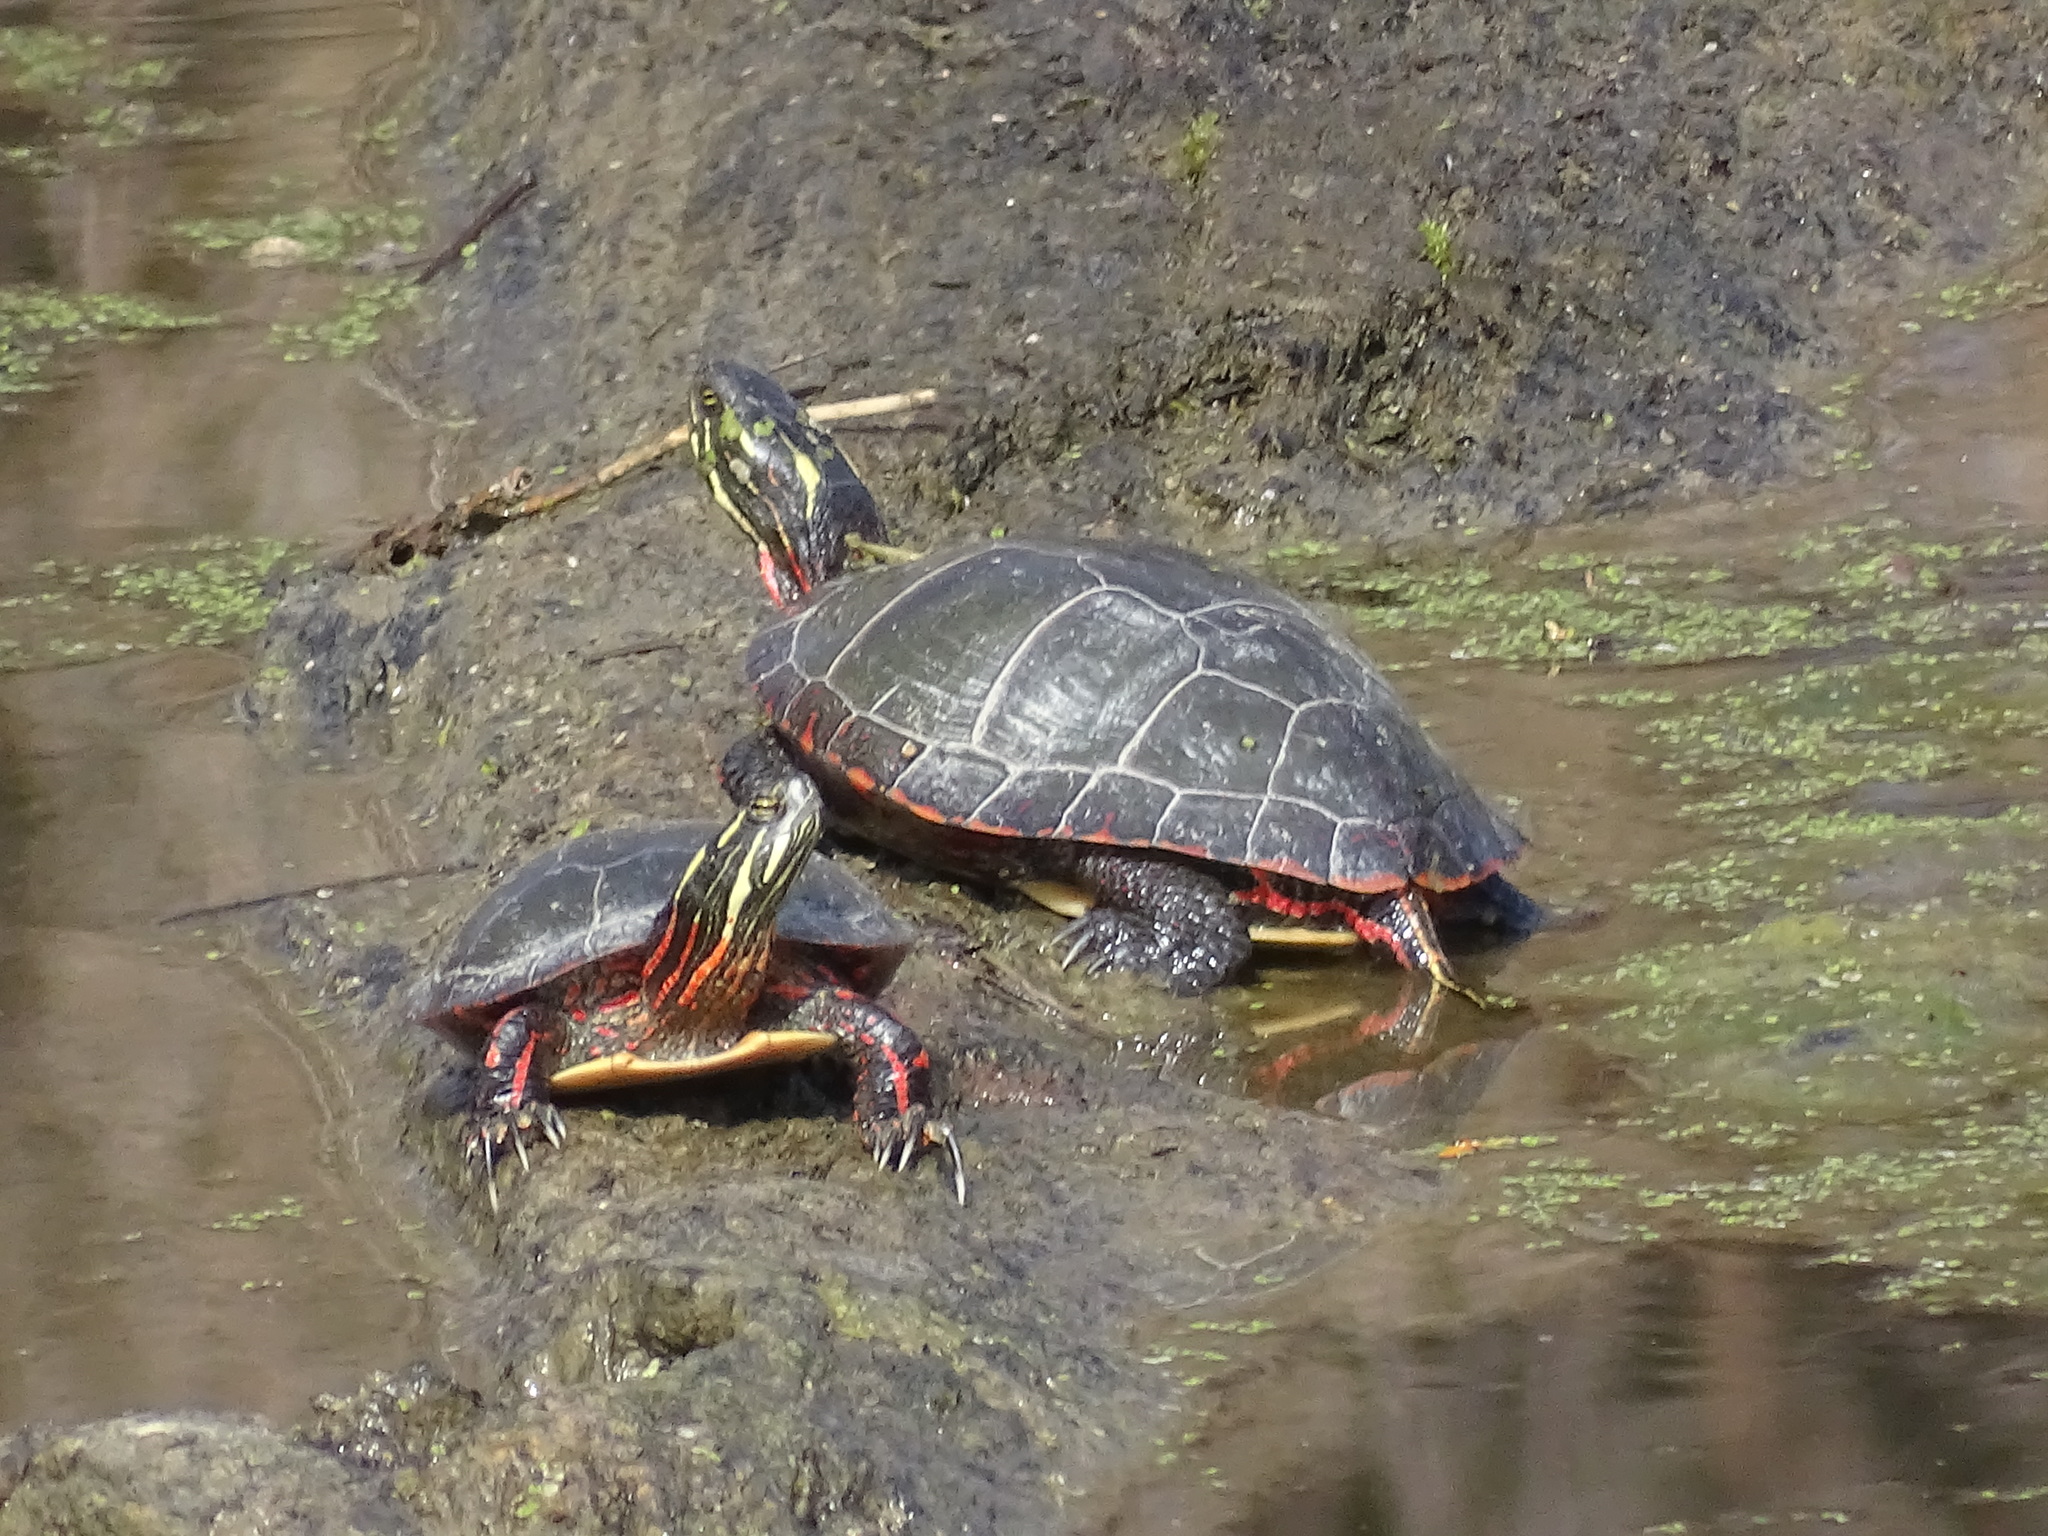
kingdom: Animalia
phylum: Chordata
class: Testudines
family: Emydidae
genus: Chrysemys
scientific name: Chrysemys picta
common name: Painted turtle
